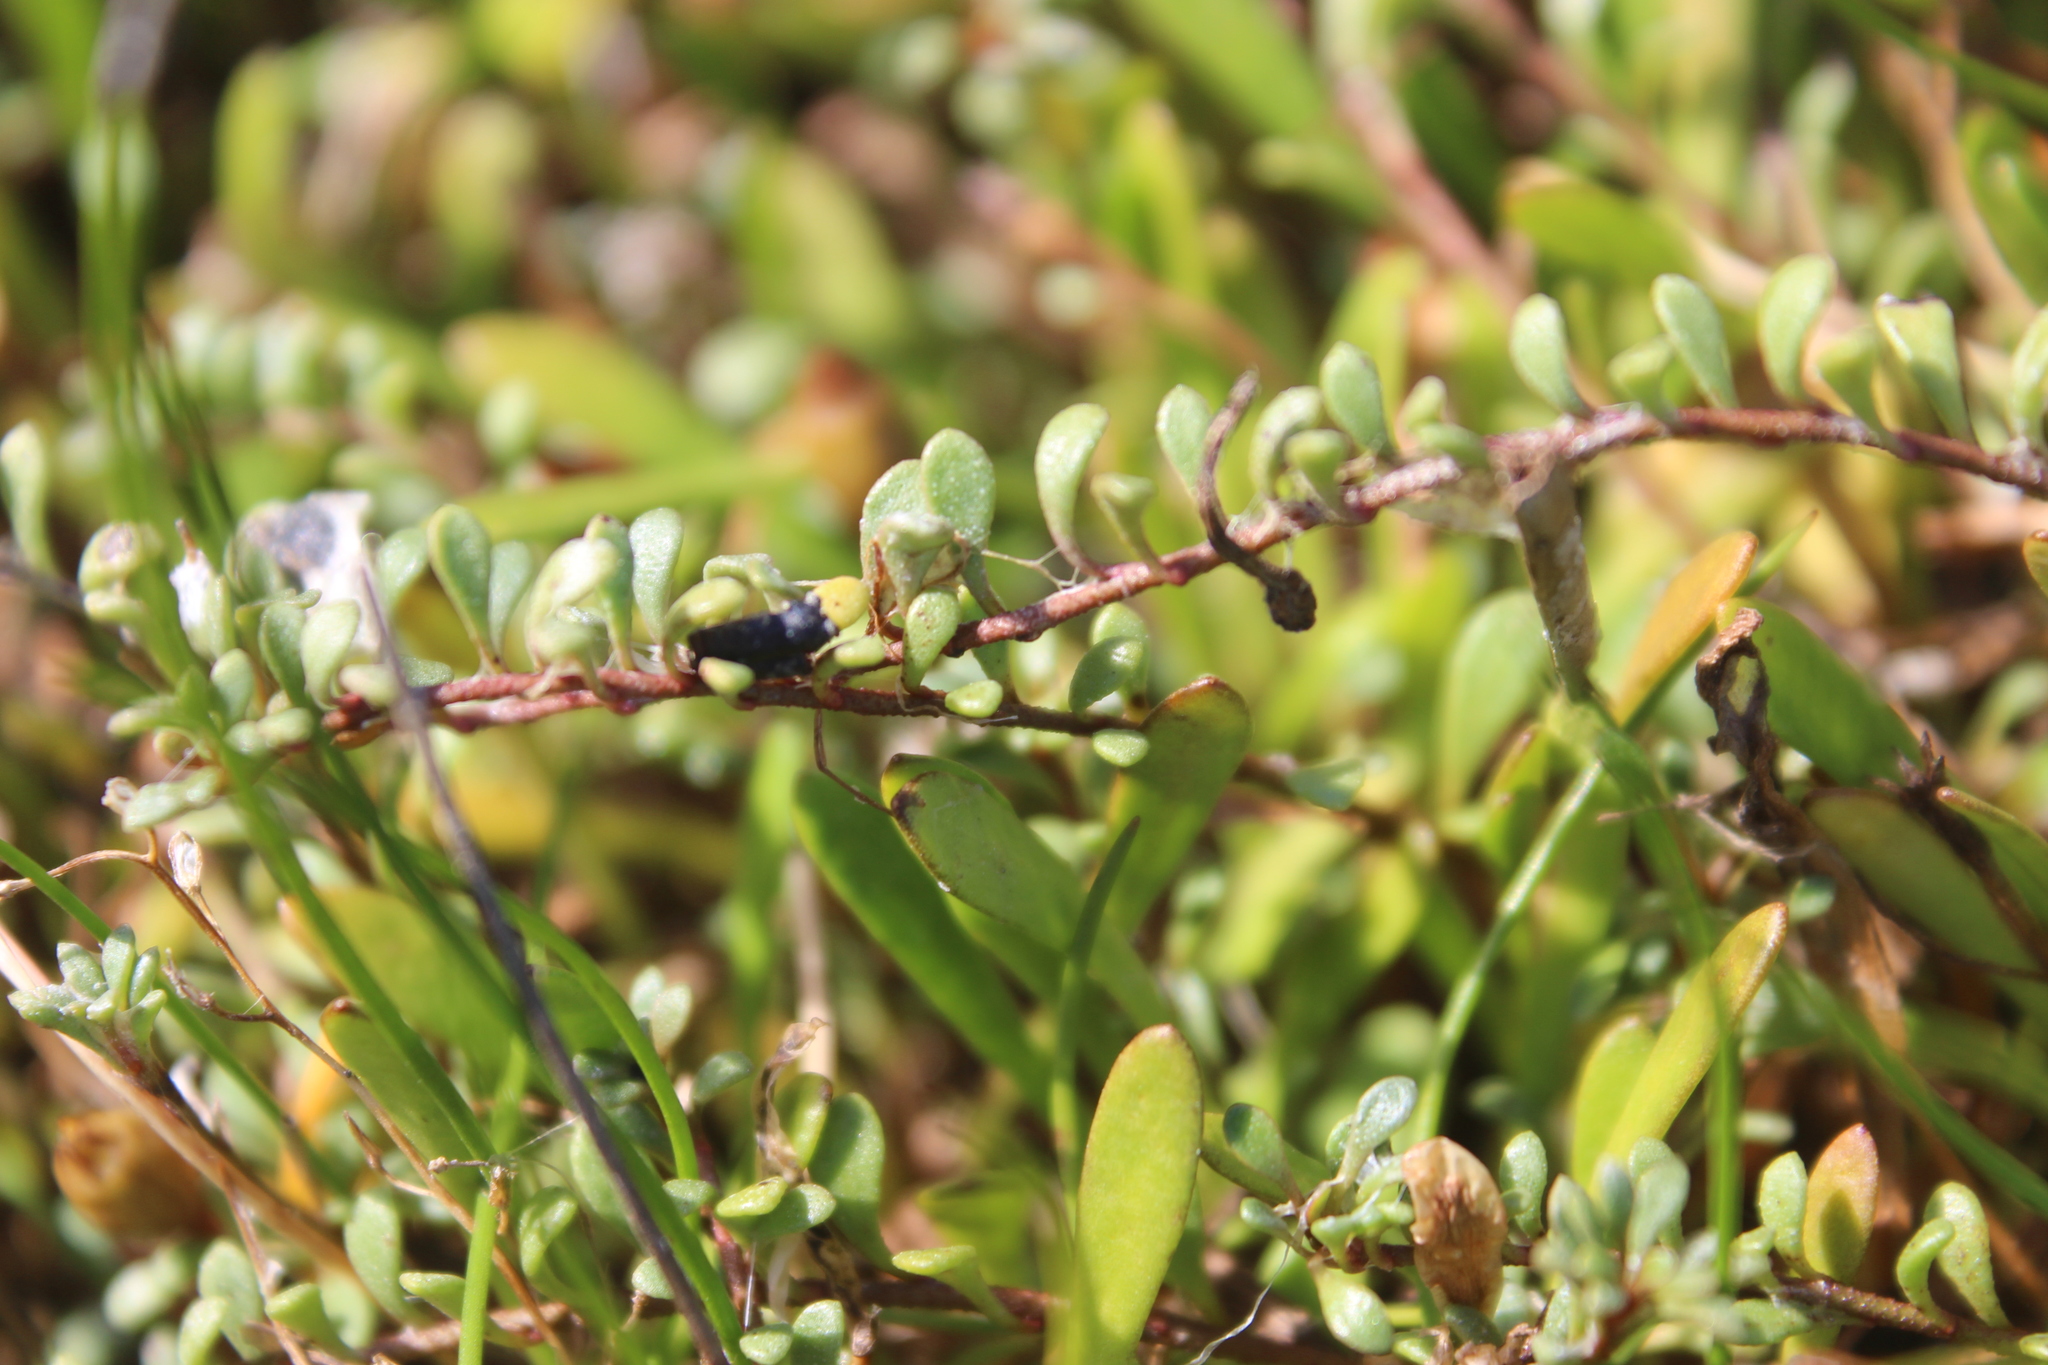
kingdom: Plantae
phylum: Tracheophyta
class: Magnoliopsida
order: Ericales
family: Primulaceae
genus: Samolus
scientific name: Samolus repens
